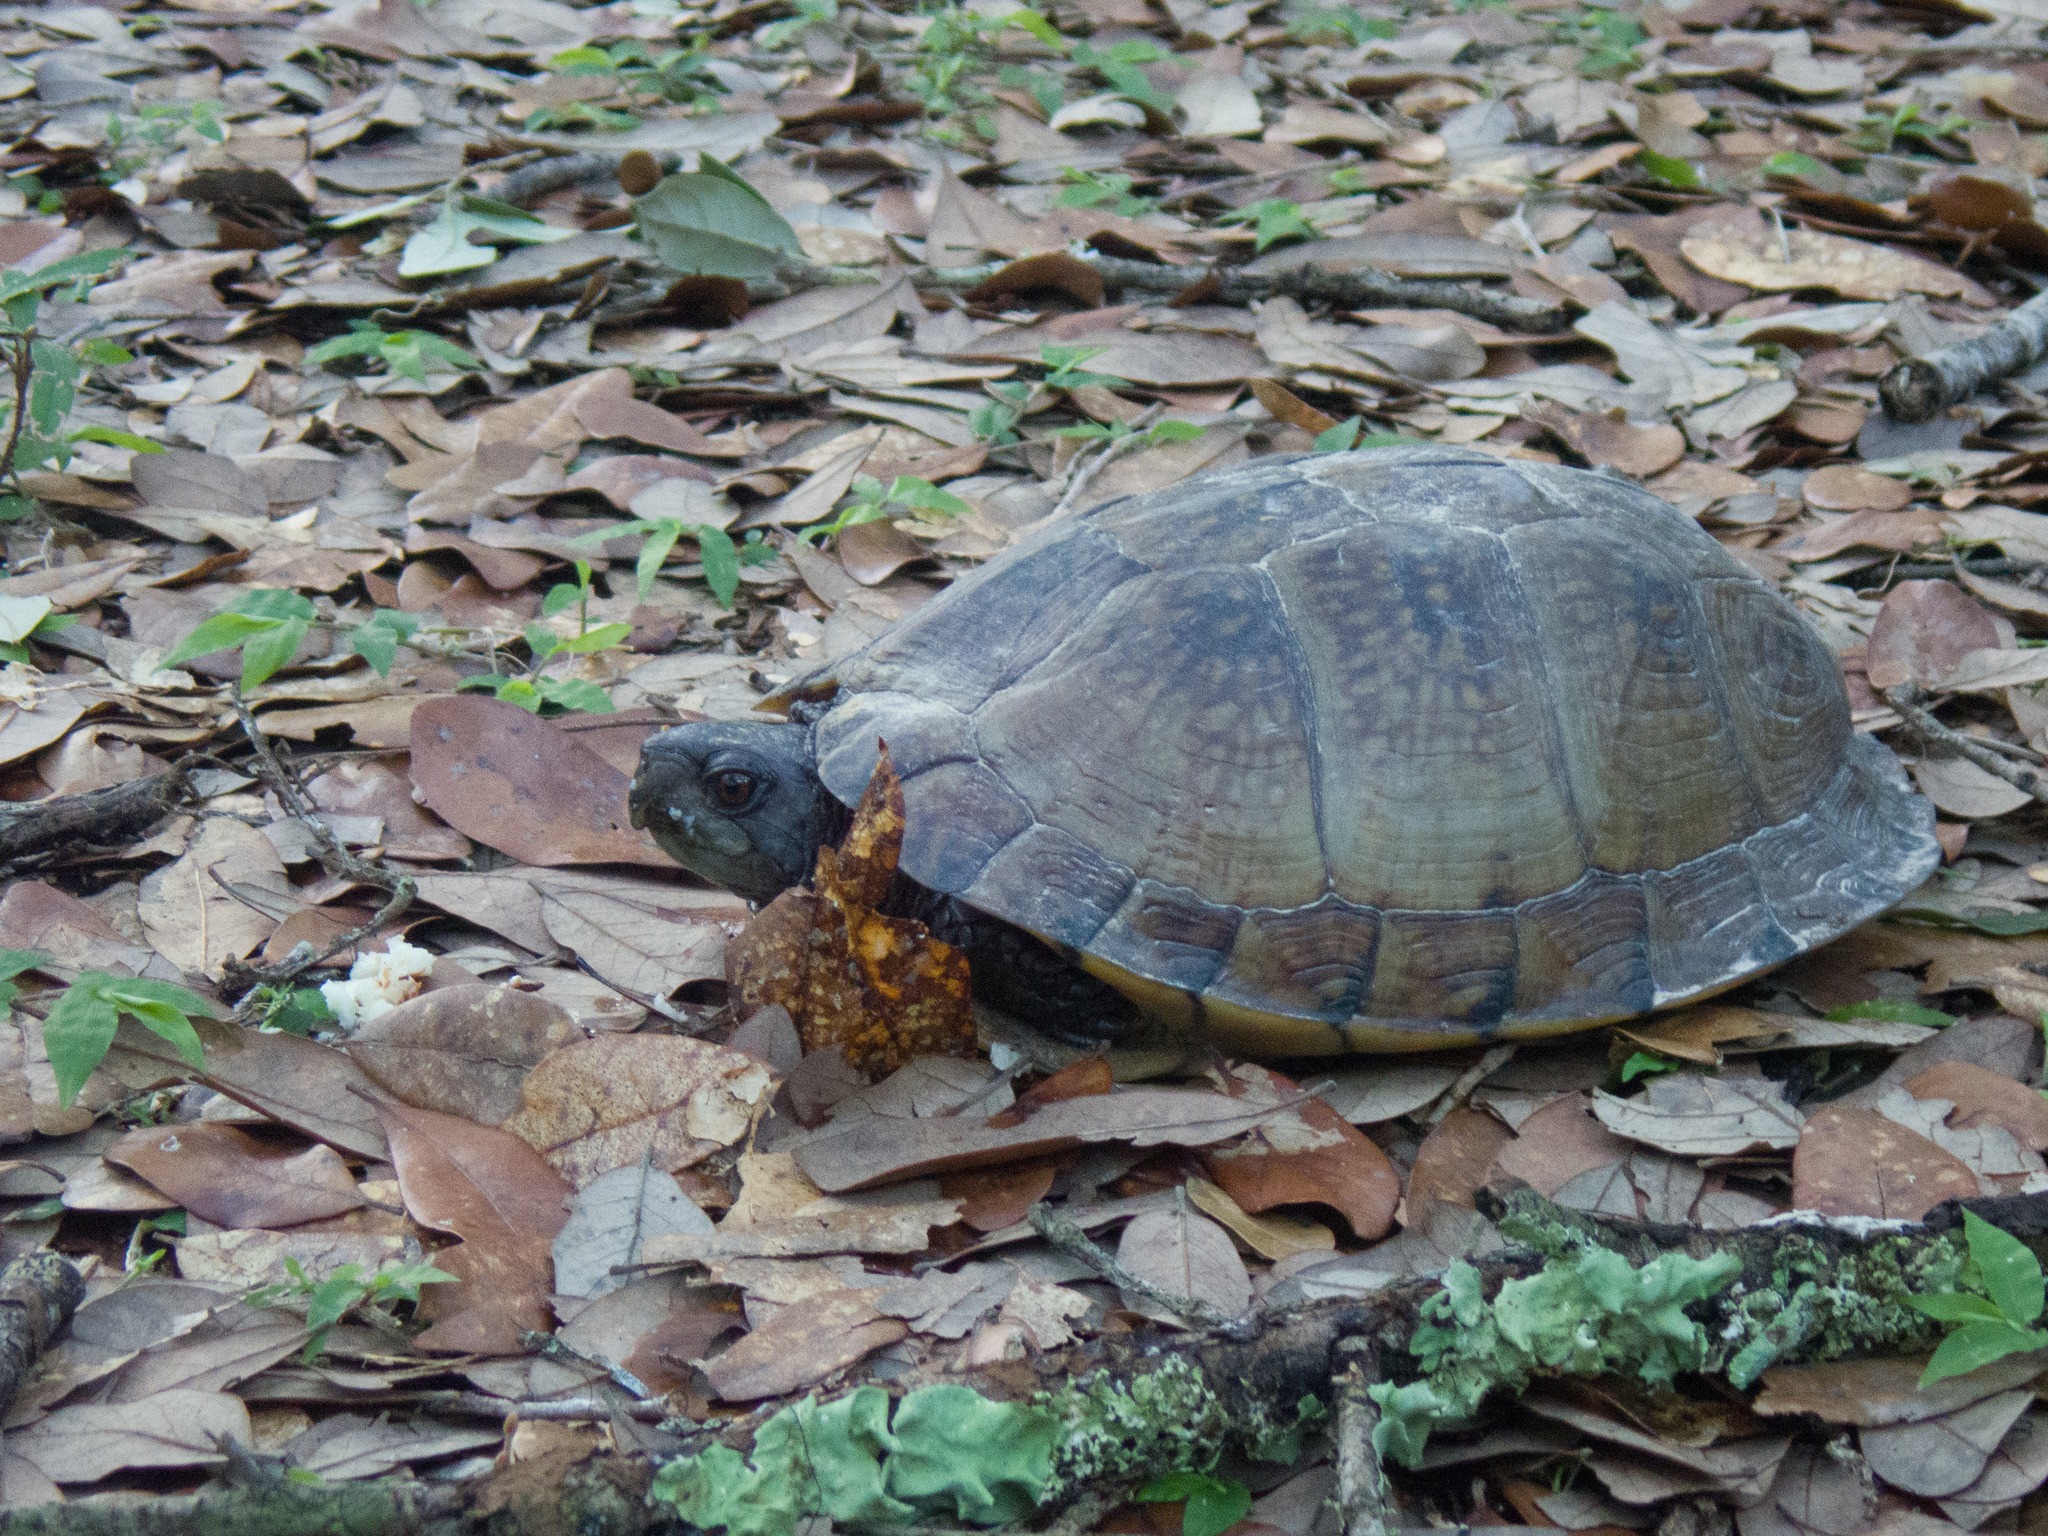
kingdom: Animalia
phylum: Chordata
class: Testudines
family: Emydidae
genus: Terrapene
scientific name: Terrapene carolina
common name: Common box turtle
